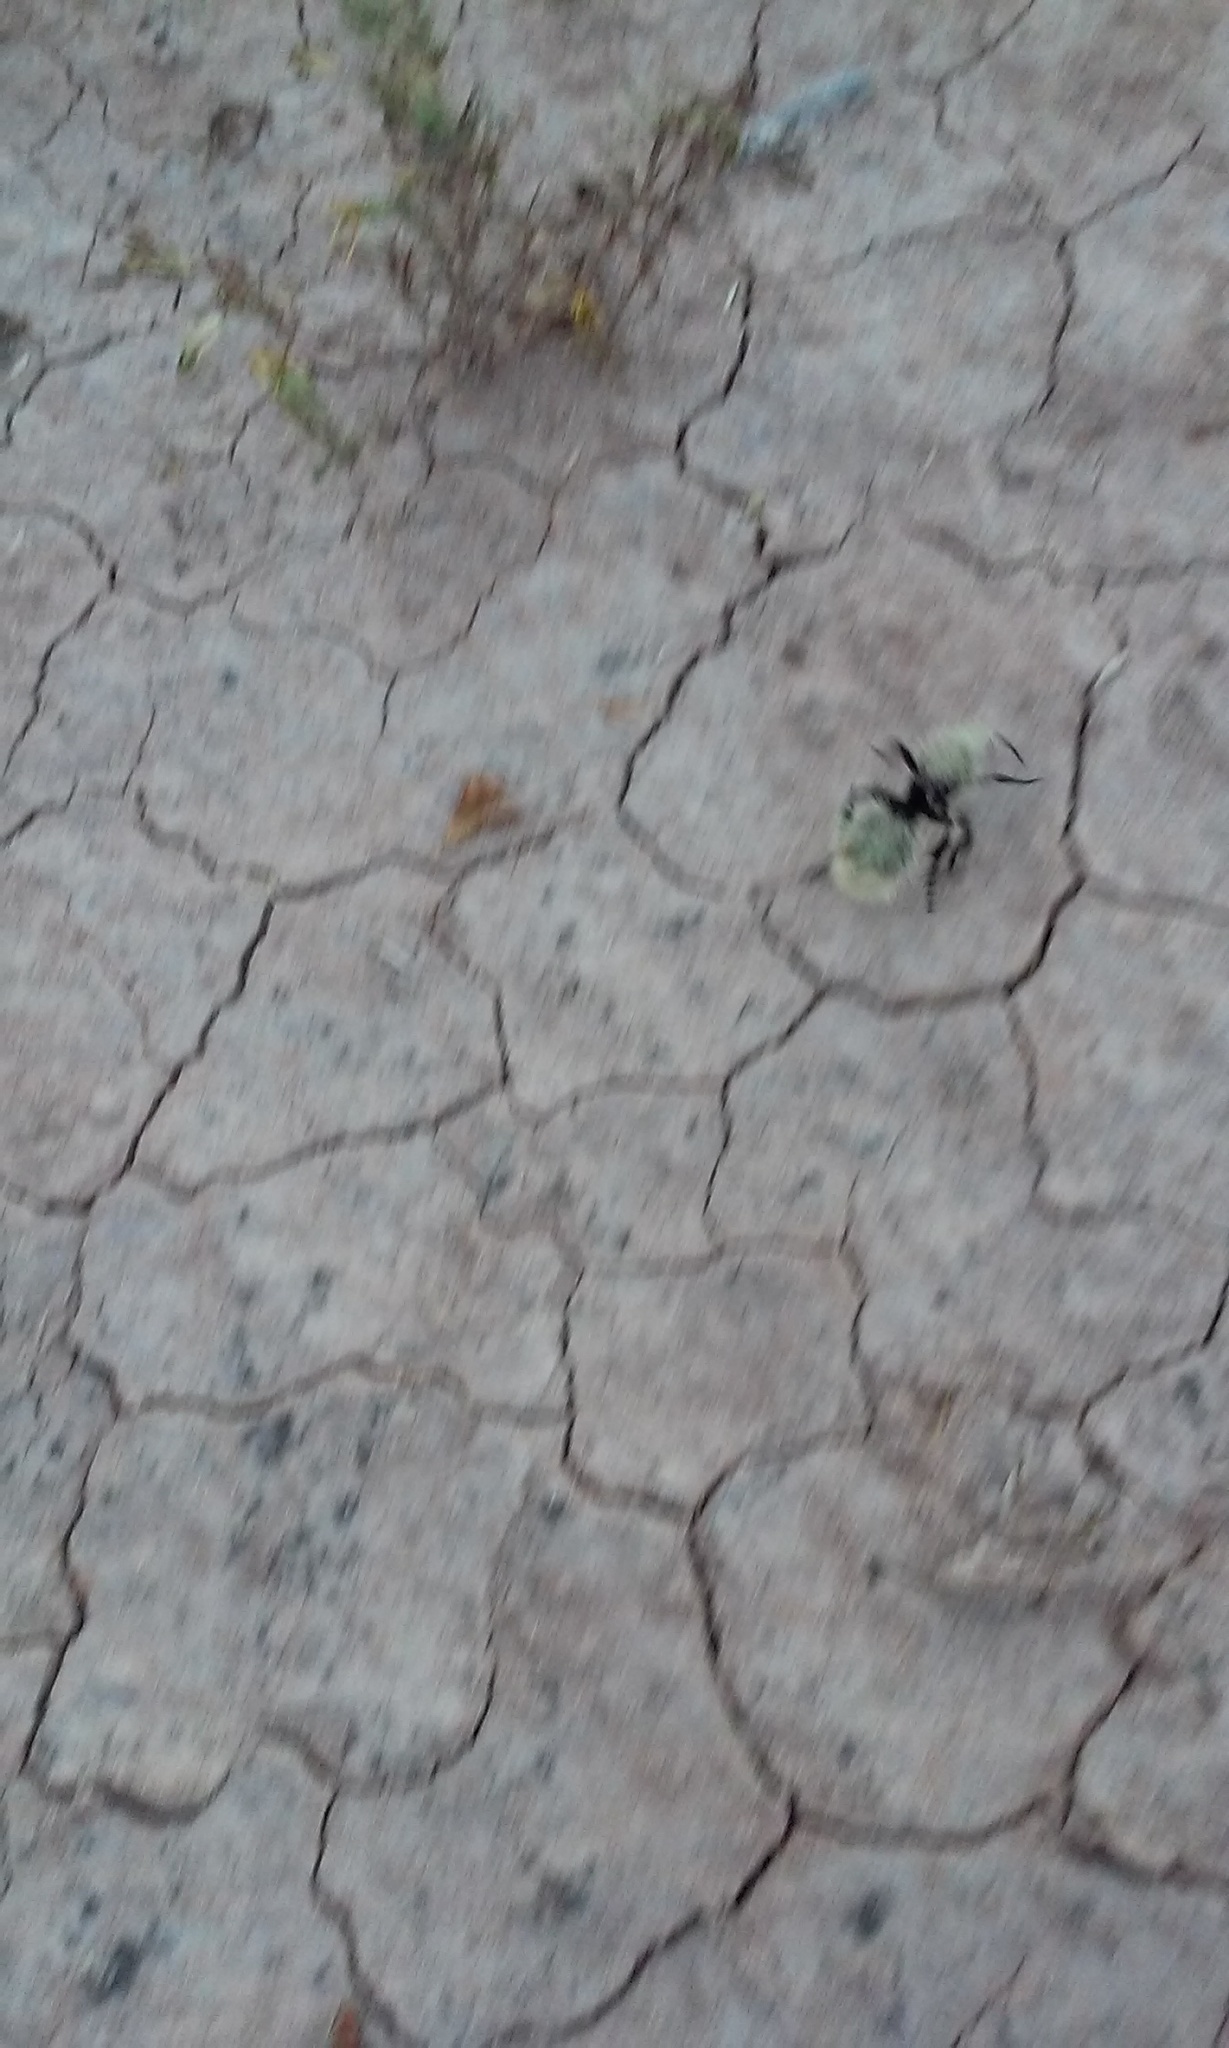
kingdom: Animalia
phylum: Arthropoda
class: Insecta
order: Hymenoptera
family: Mutillidae
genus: Dasymutilla
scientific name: Dasymutilla
